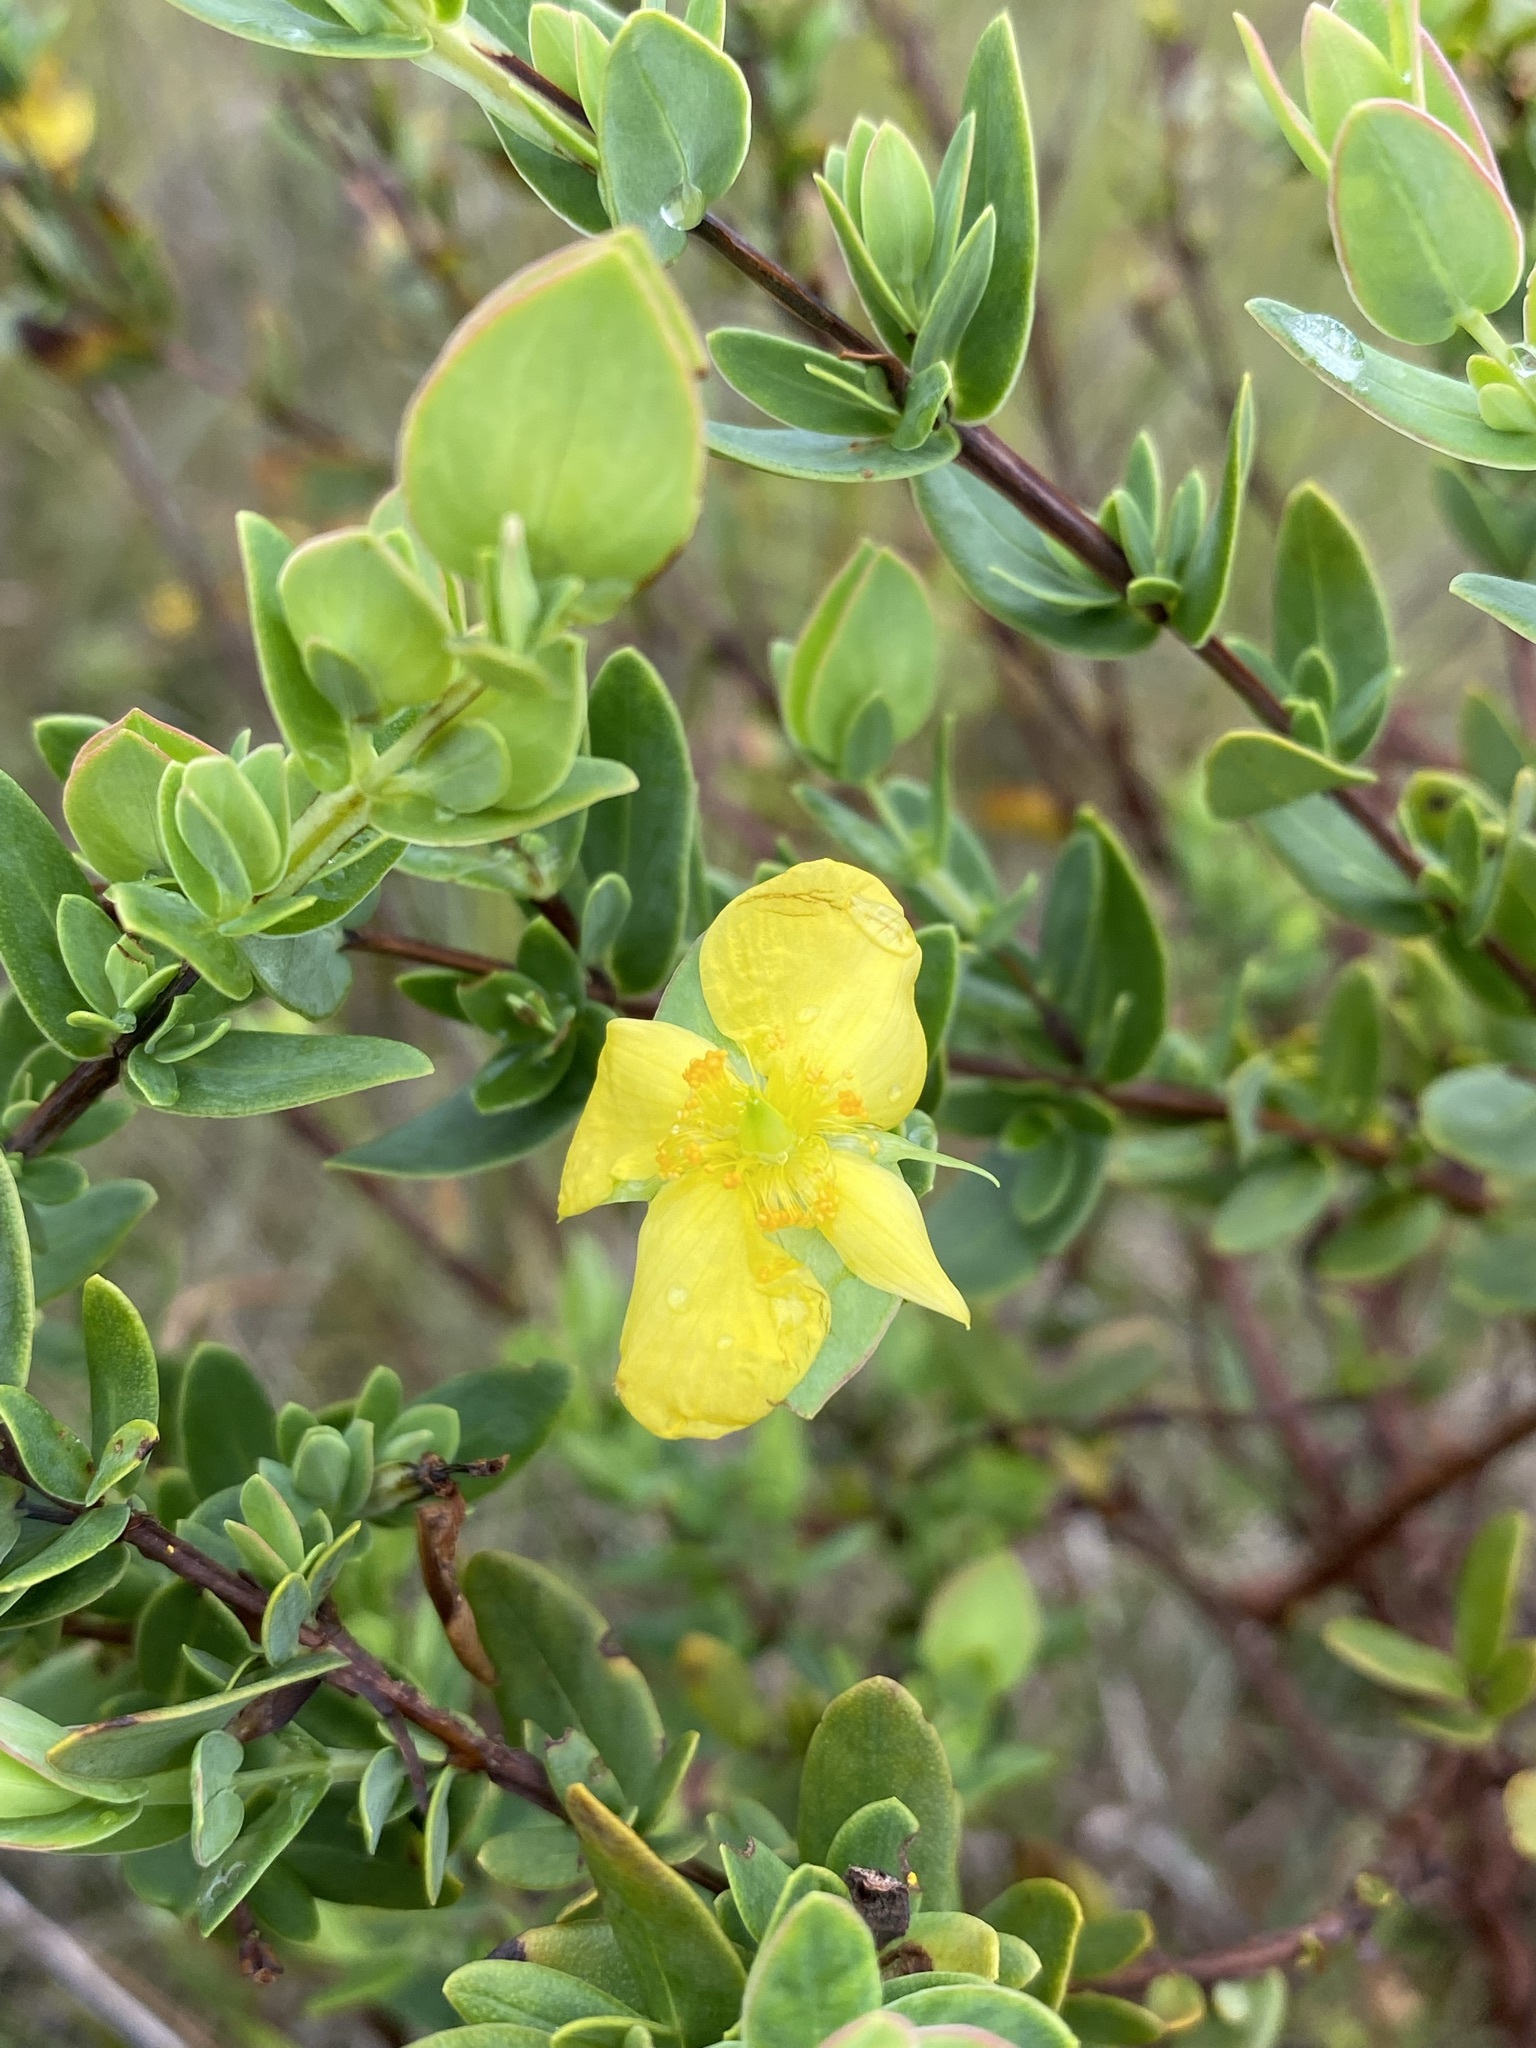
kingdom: Plantae
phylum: Tracheophyta
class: Magnoliopsida
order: Malpighiales
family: Hypericaceae
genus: Hypericum
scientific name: Hypericum tetrapetalum
